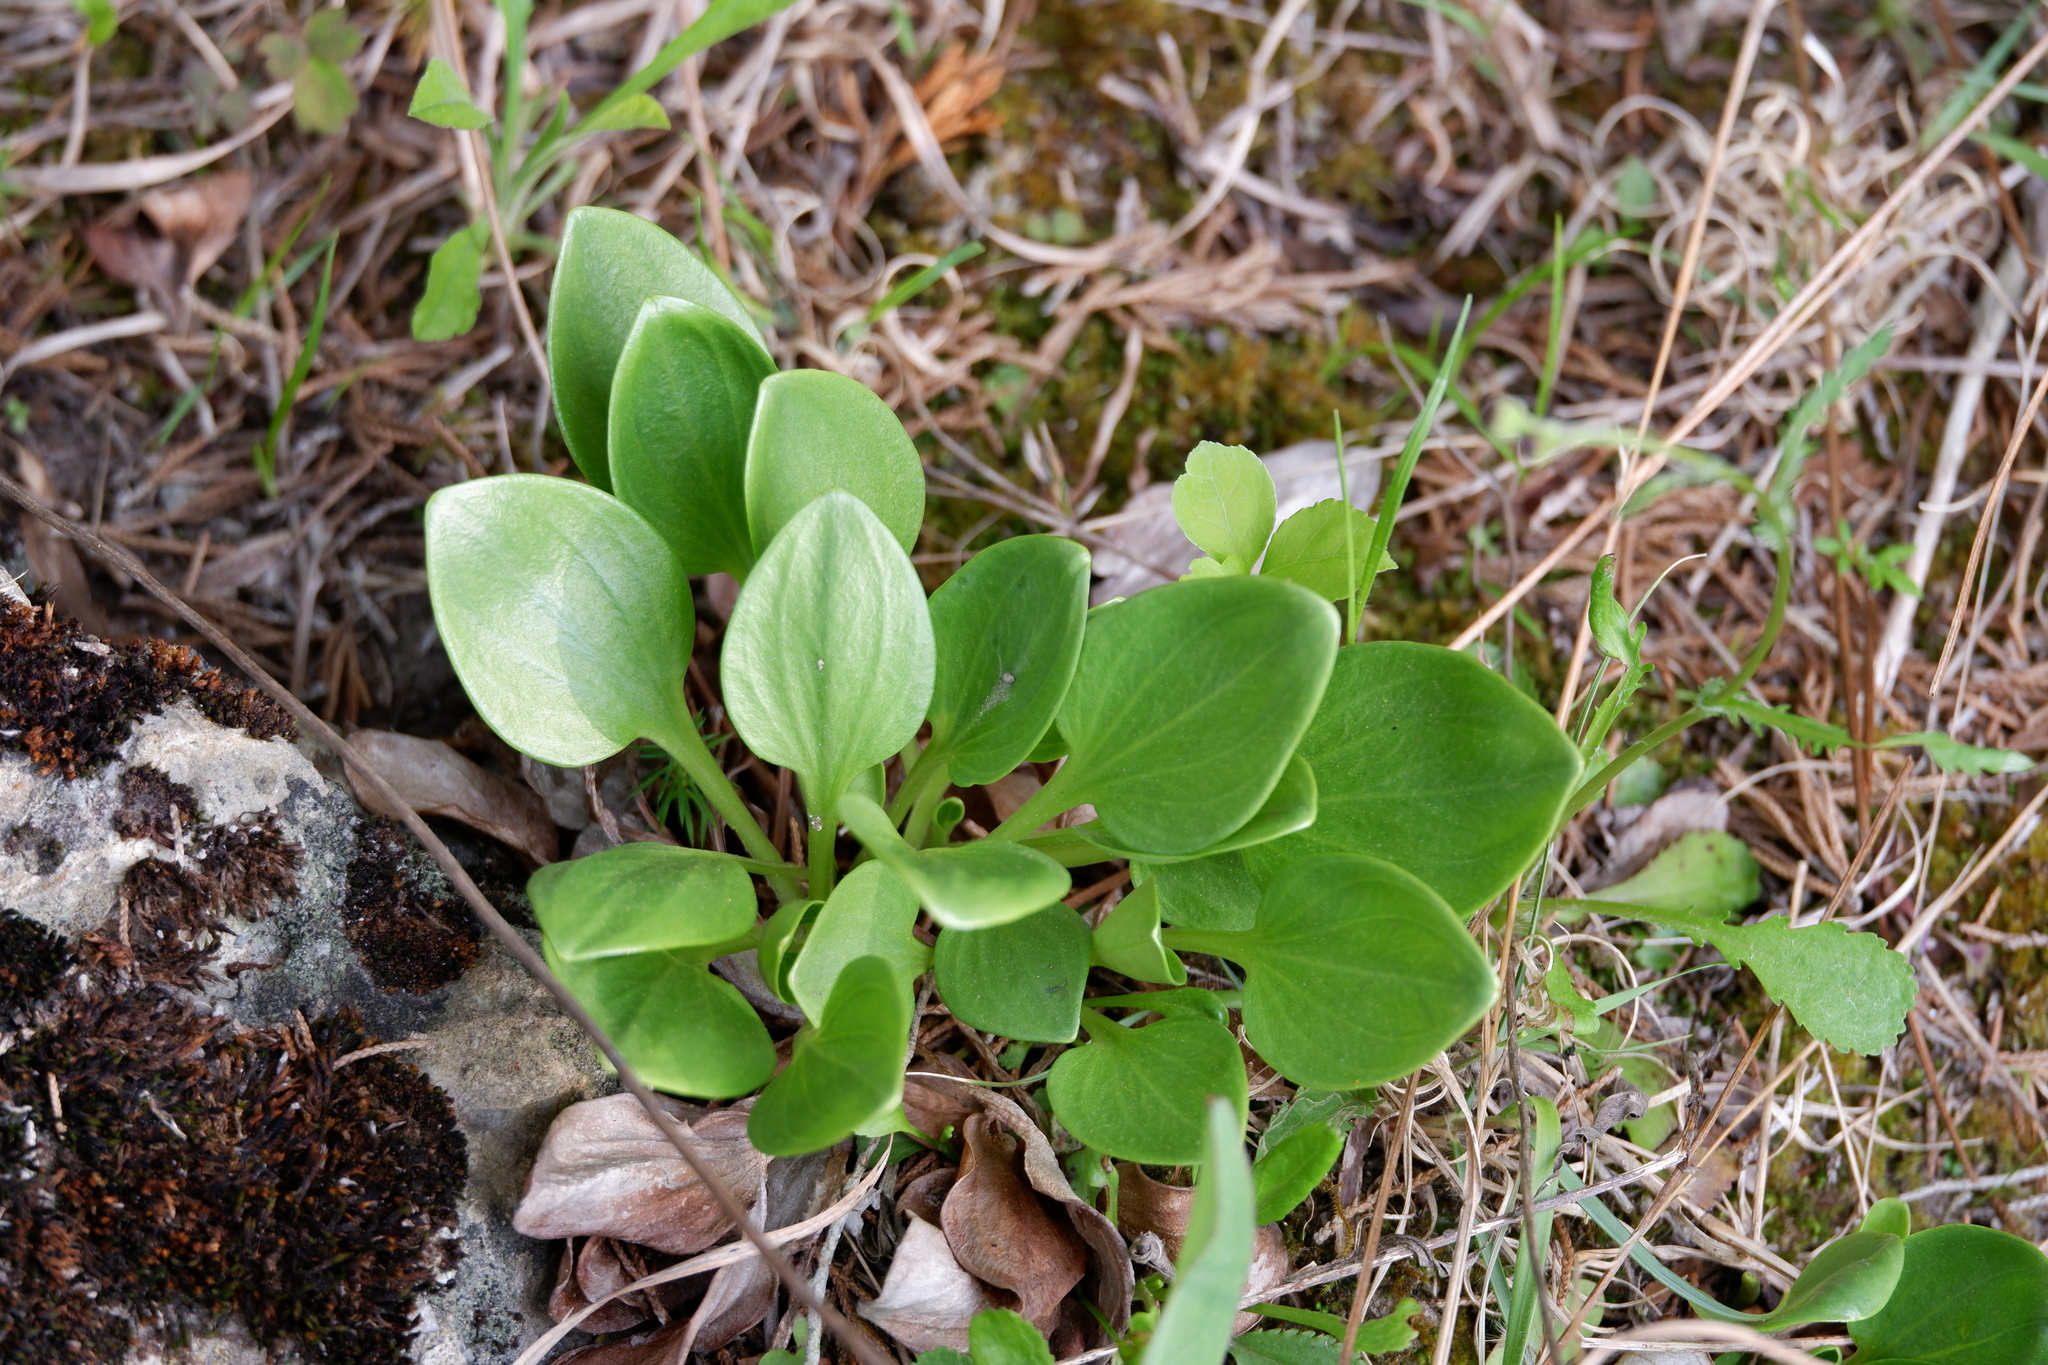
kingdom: Plantae
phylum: Tracheophyta
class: Magnoliopsida
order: Celastrales
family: Parnassiaceae
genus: Parnassia
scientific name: Parnassia glauca
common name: American grass-of-parnassus
